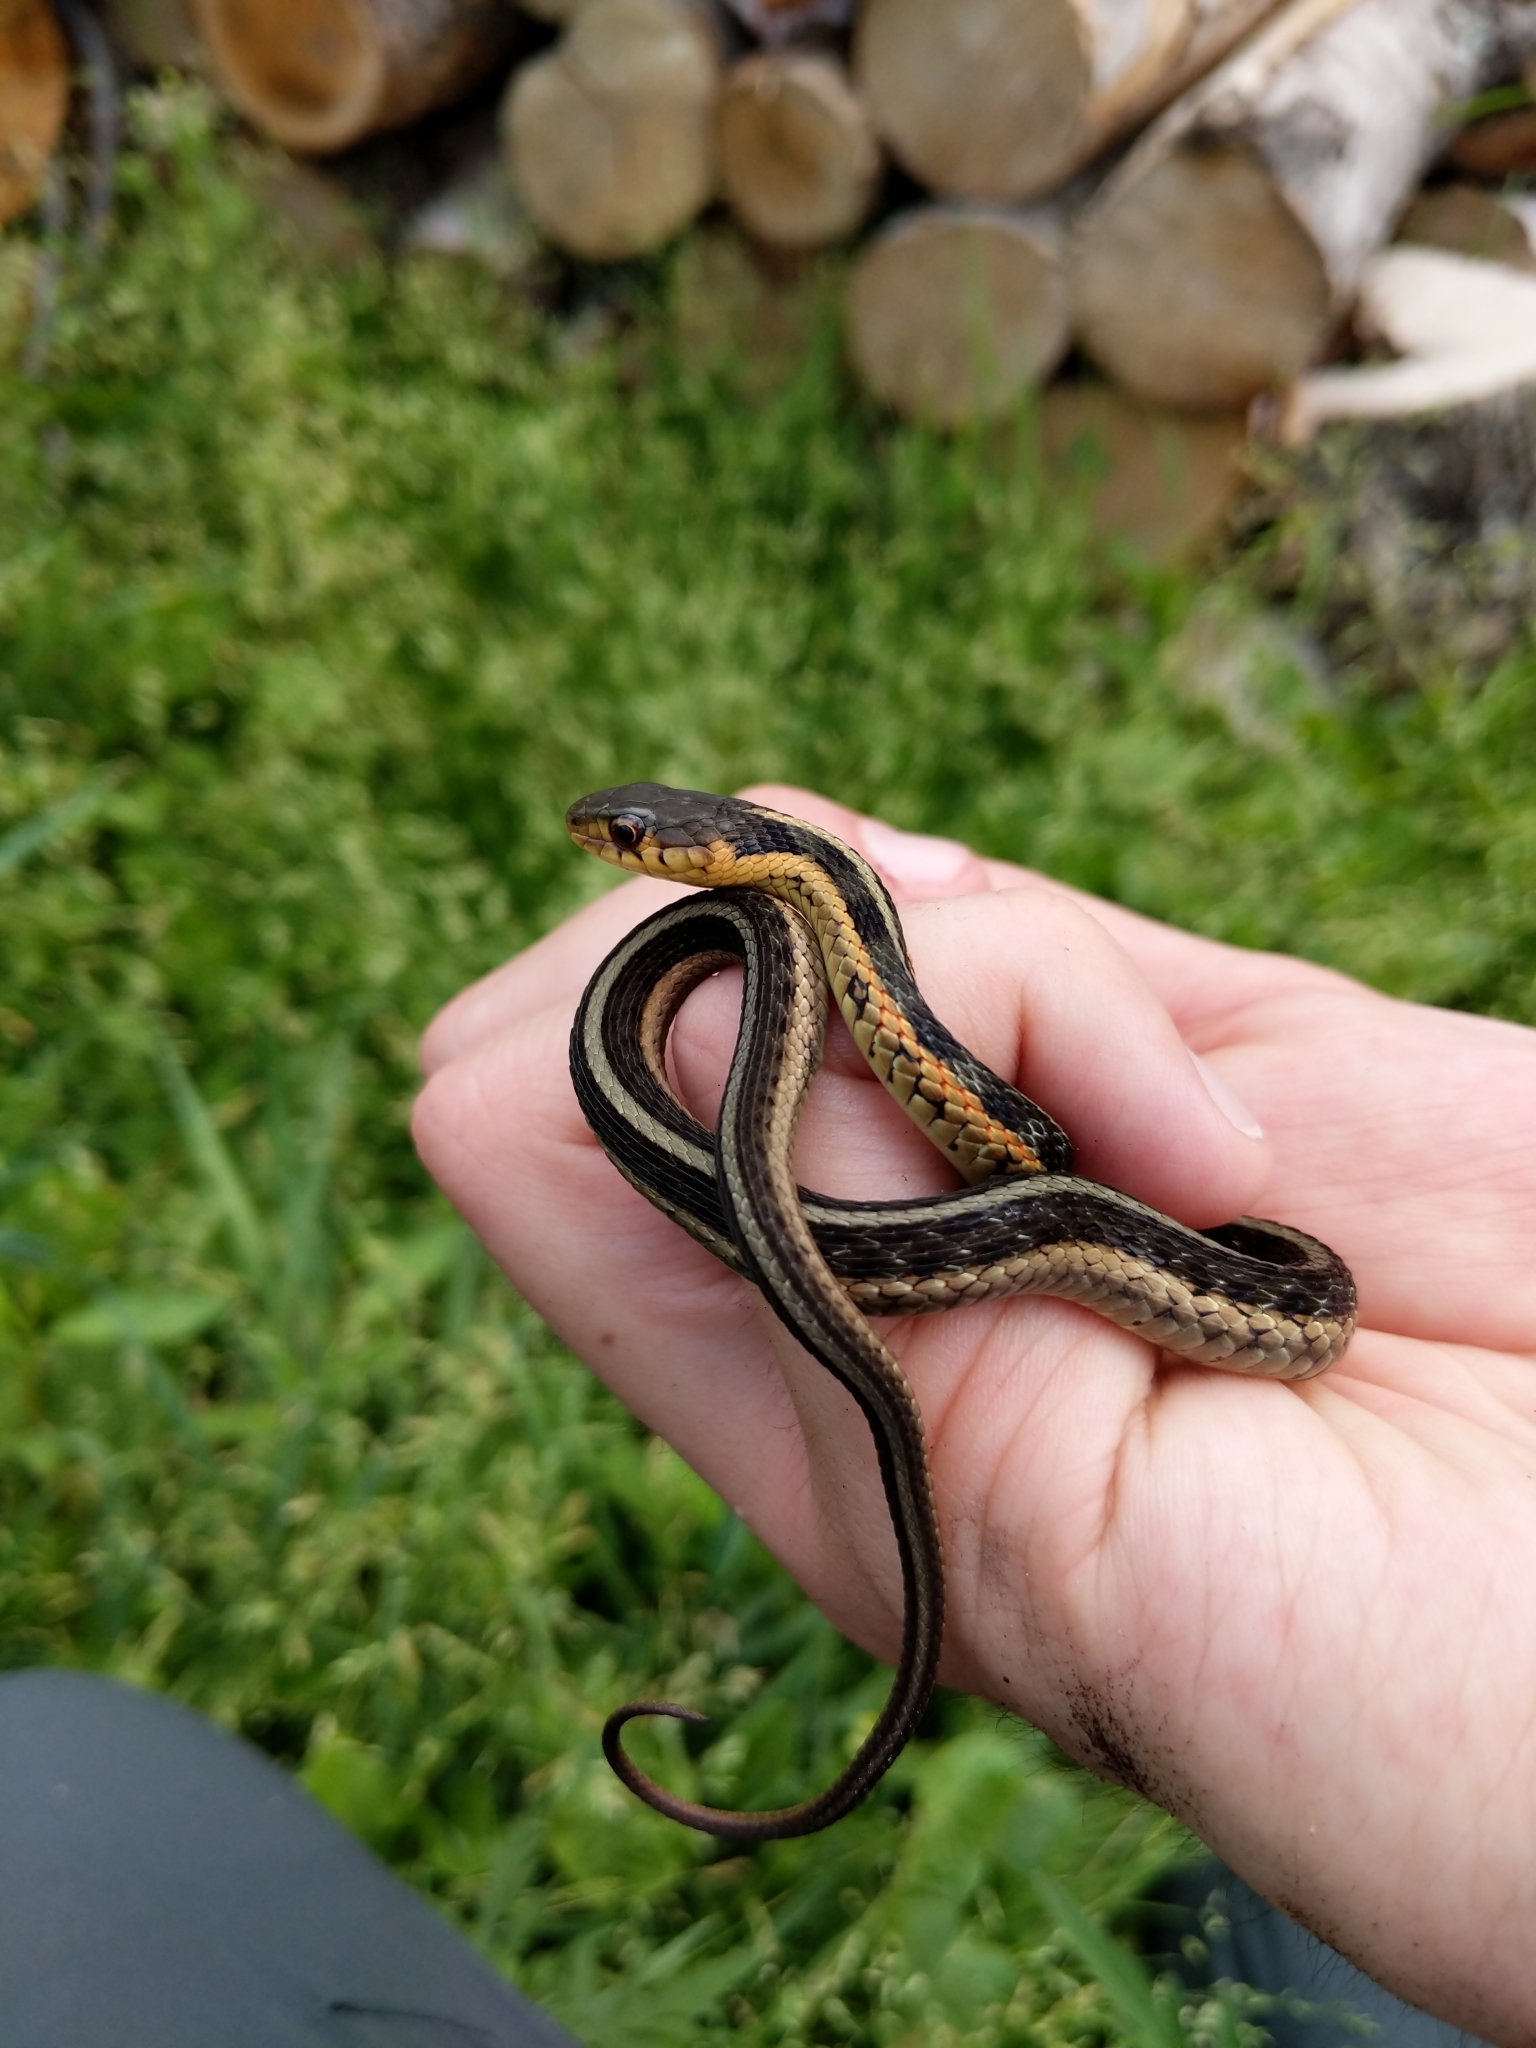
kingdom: Animalia
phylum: Chordata
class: Squamata
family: Colubridae
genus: Thamnophis
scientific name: Thamnophis sirtalis
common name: Common garter snake
